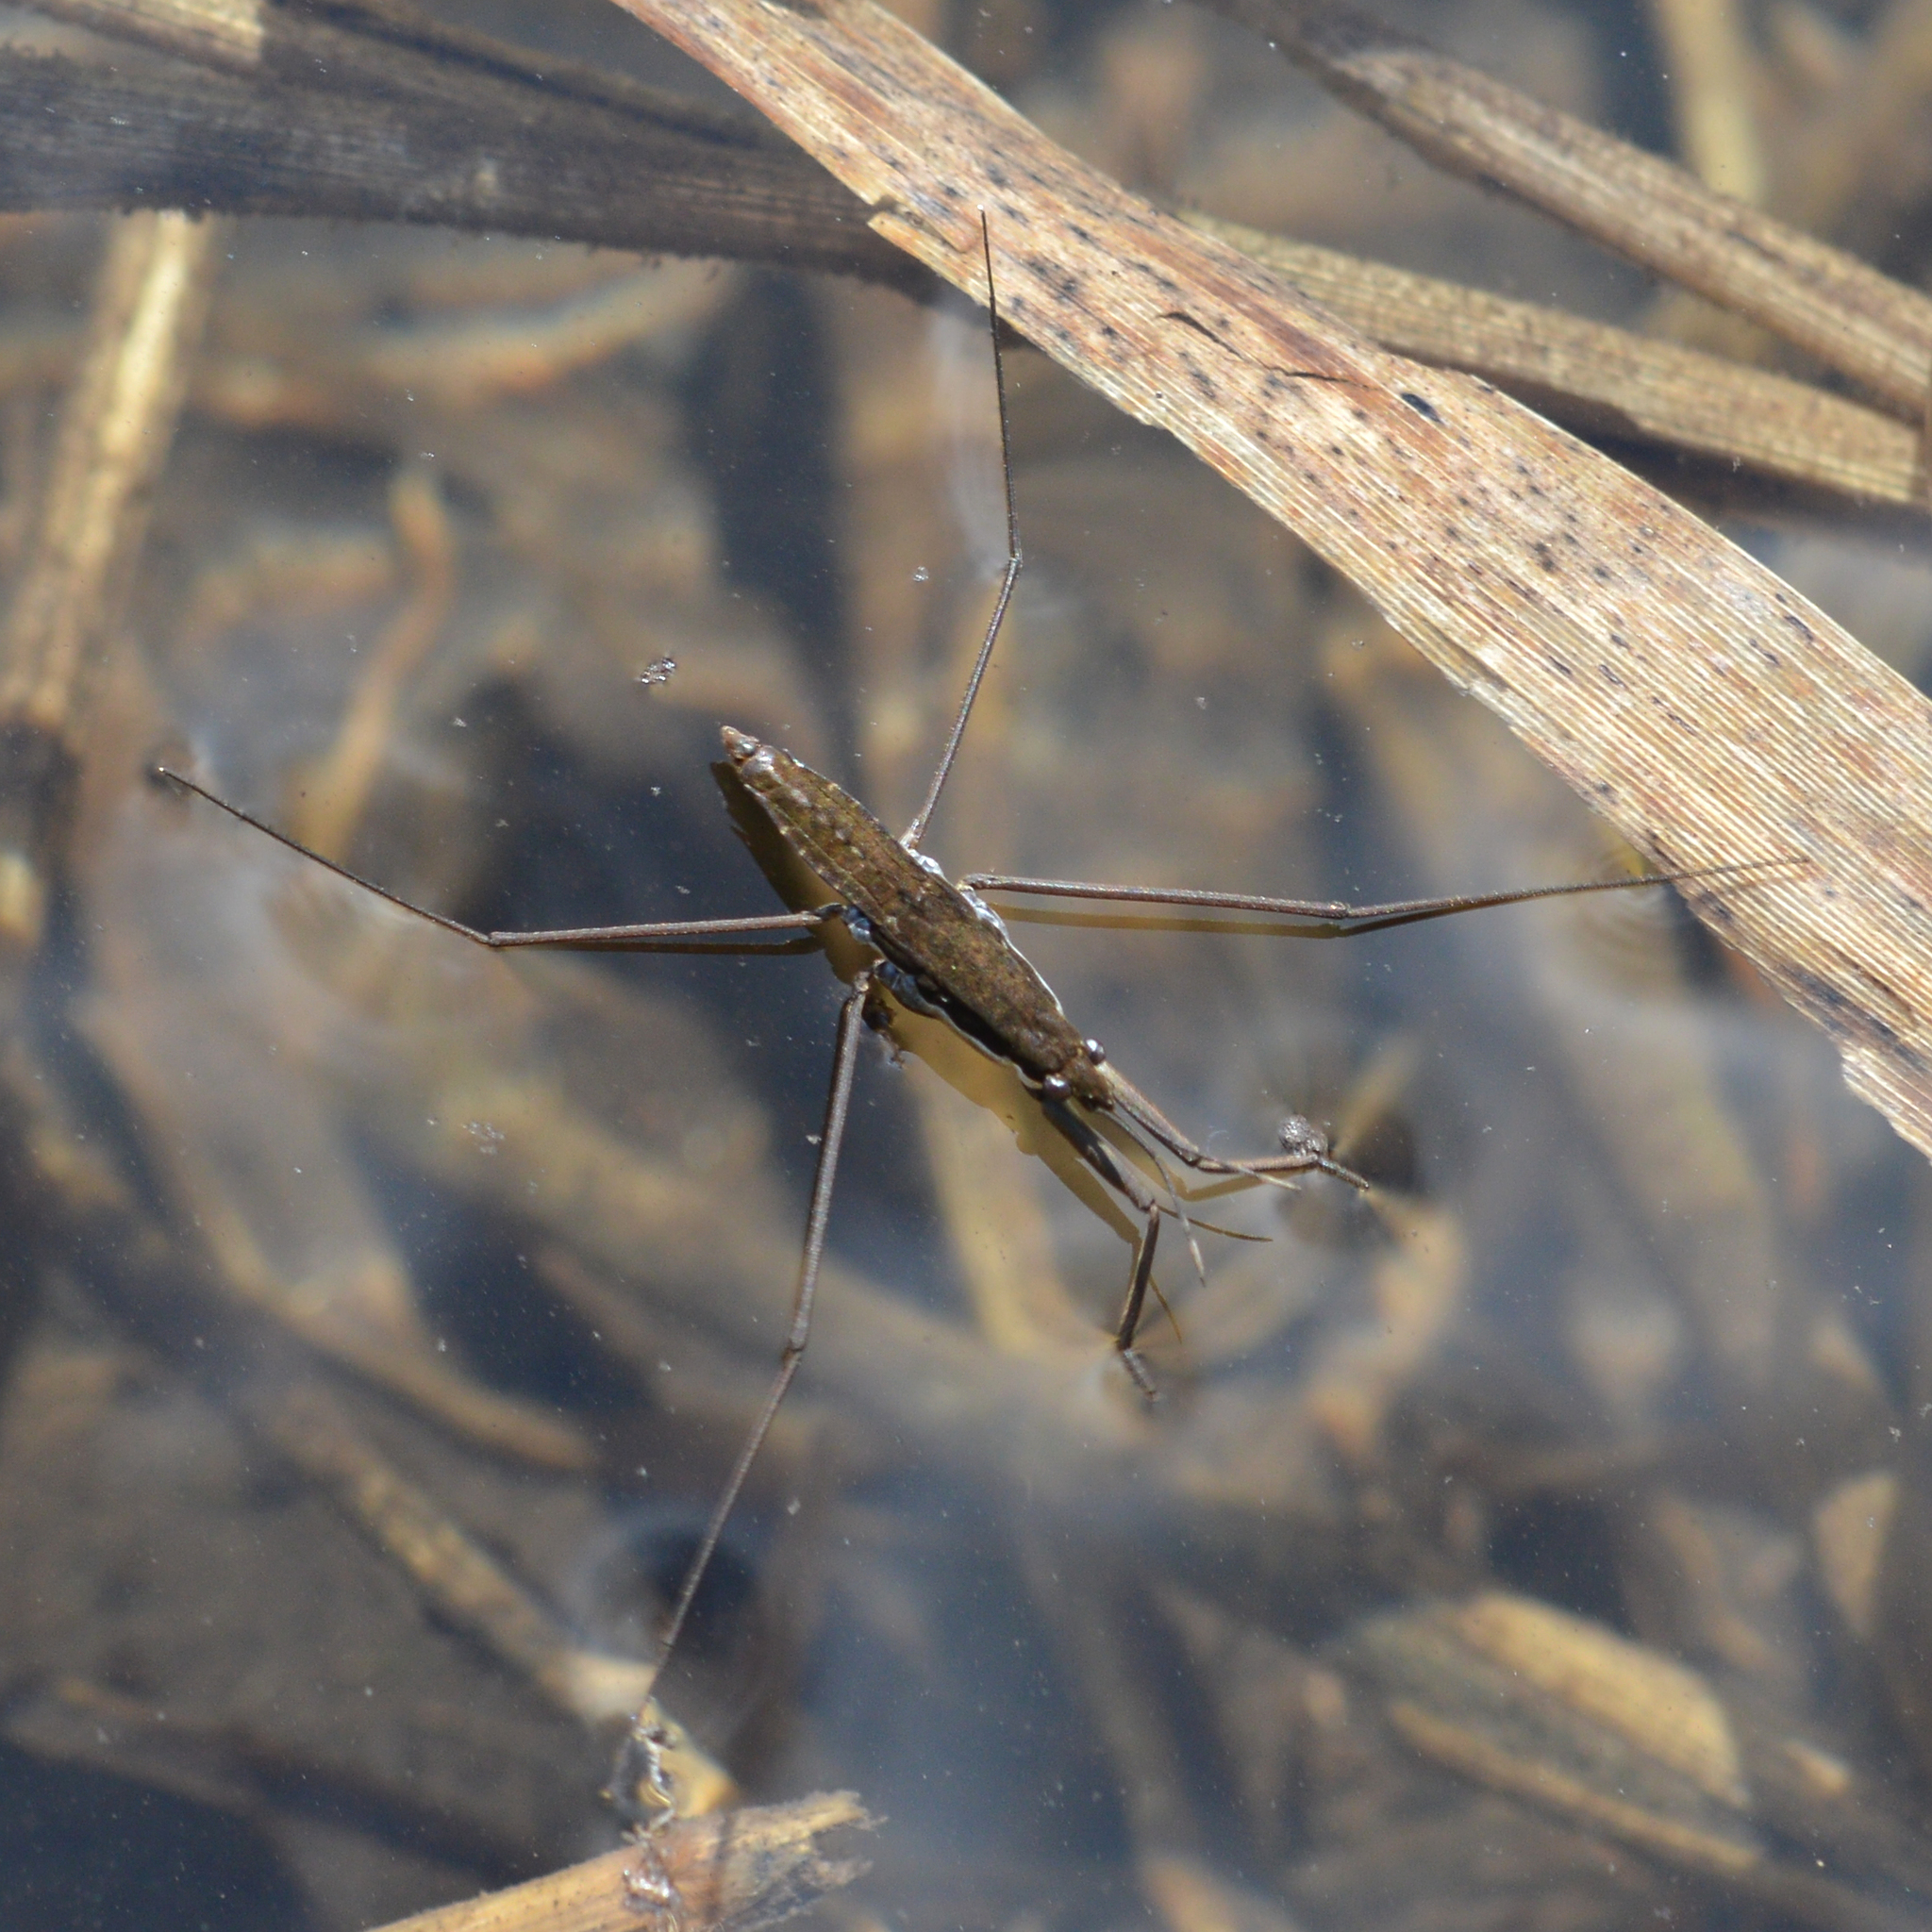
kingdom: Animalia
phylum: Arthropoda
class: Insecta
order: Hemiptera
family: Gerridae
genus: Aquarius
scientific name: Aquarius remigis
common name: Common water strider
